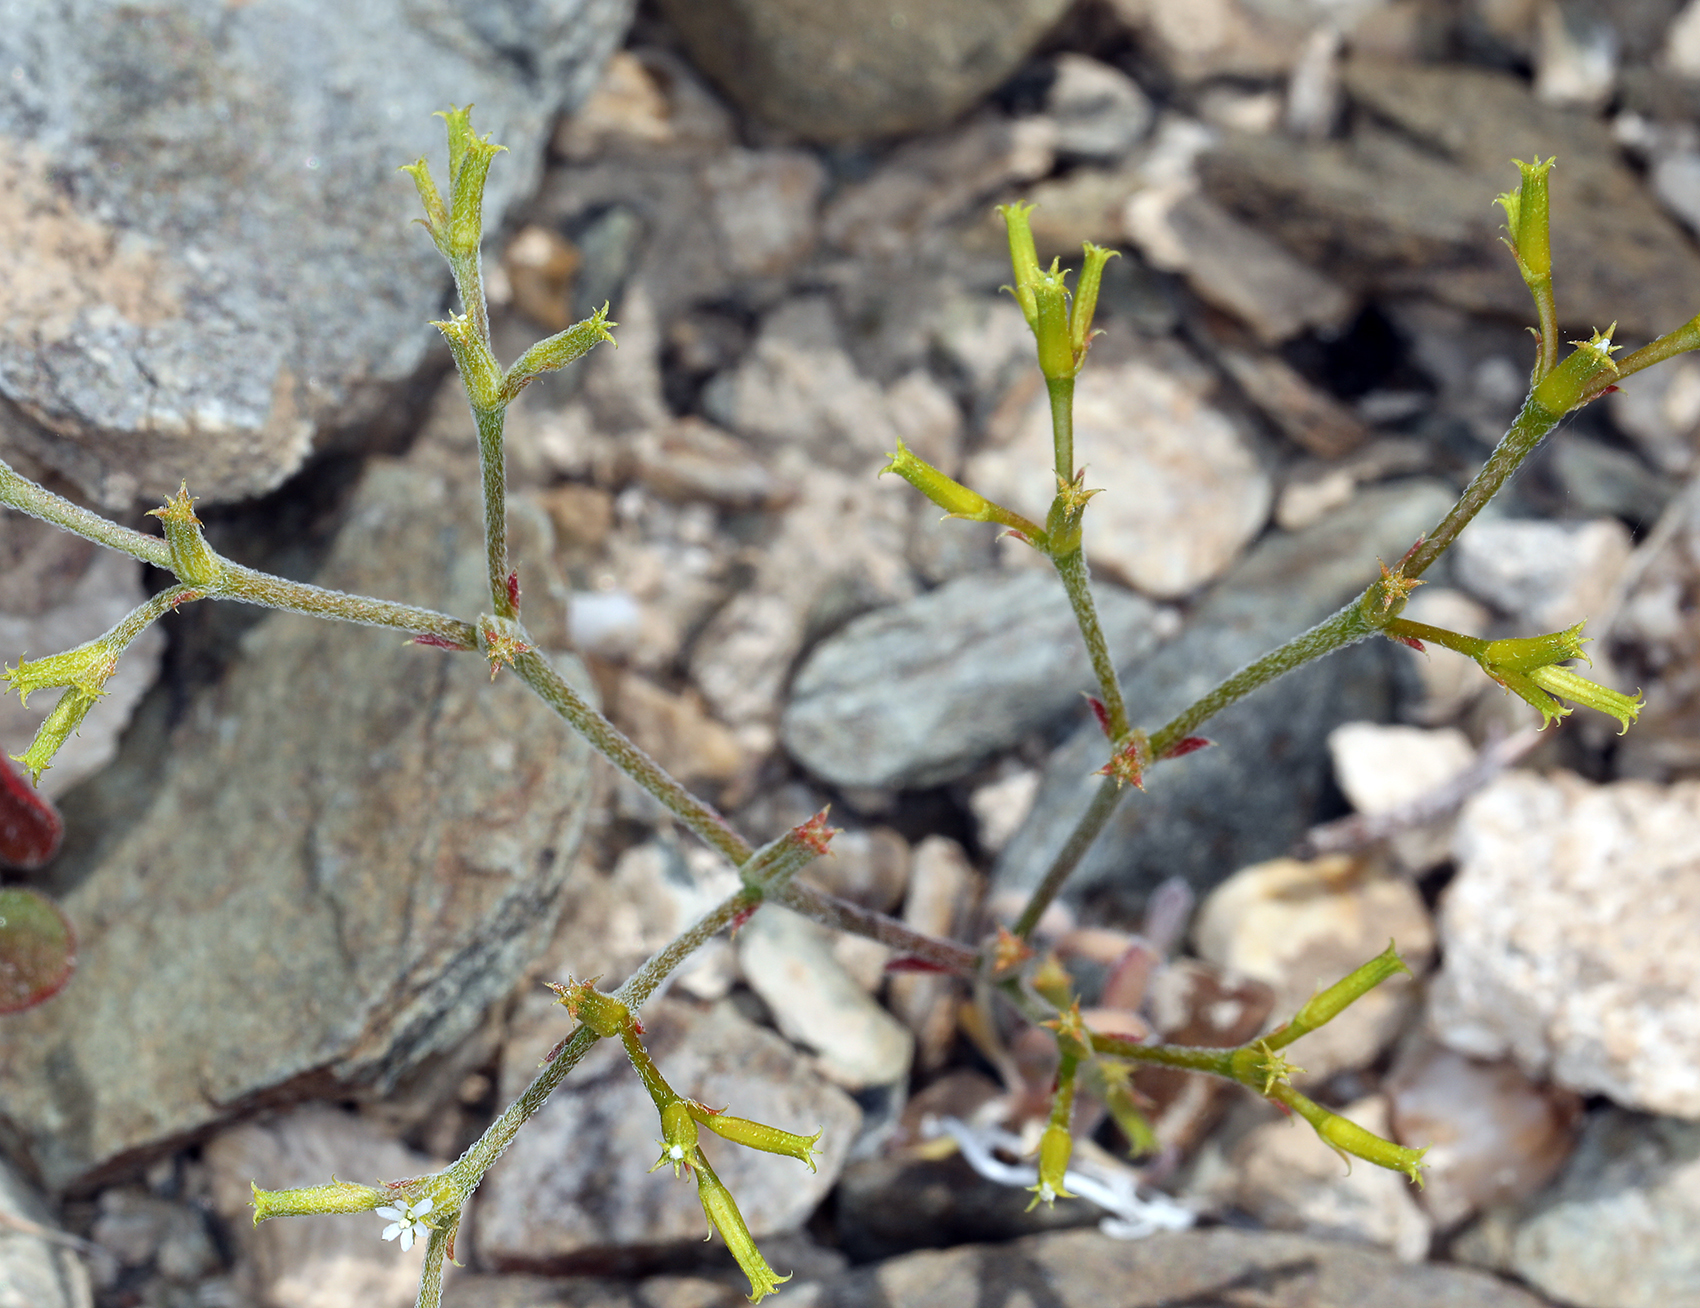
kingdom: Plantae
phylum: Tracheophyta
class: Magnoliopsida
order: Caryophyllales
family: Polygonaceae
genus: Chorizanthe
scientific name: Chorizanthe brevicornu
